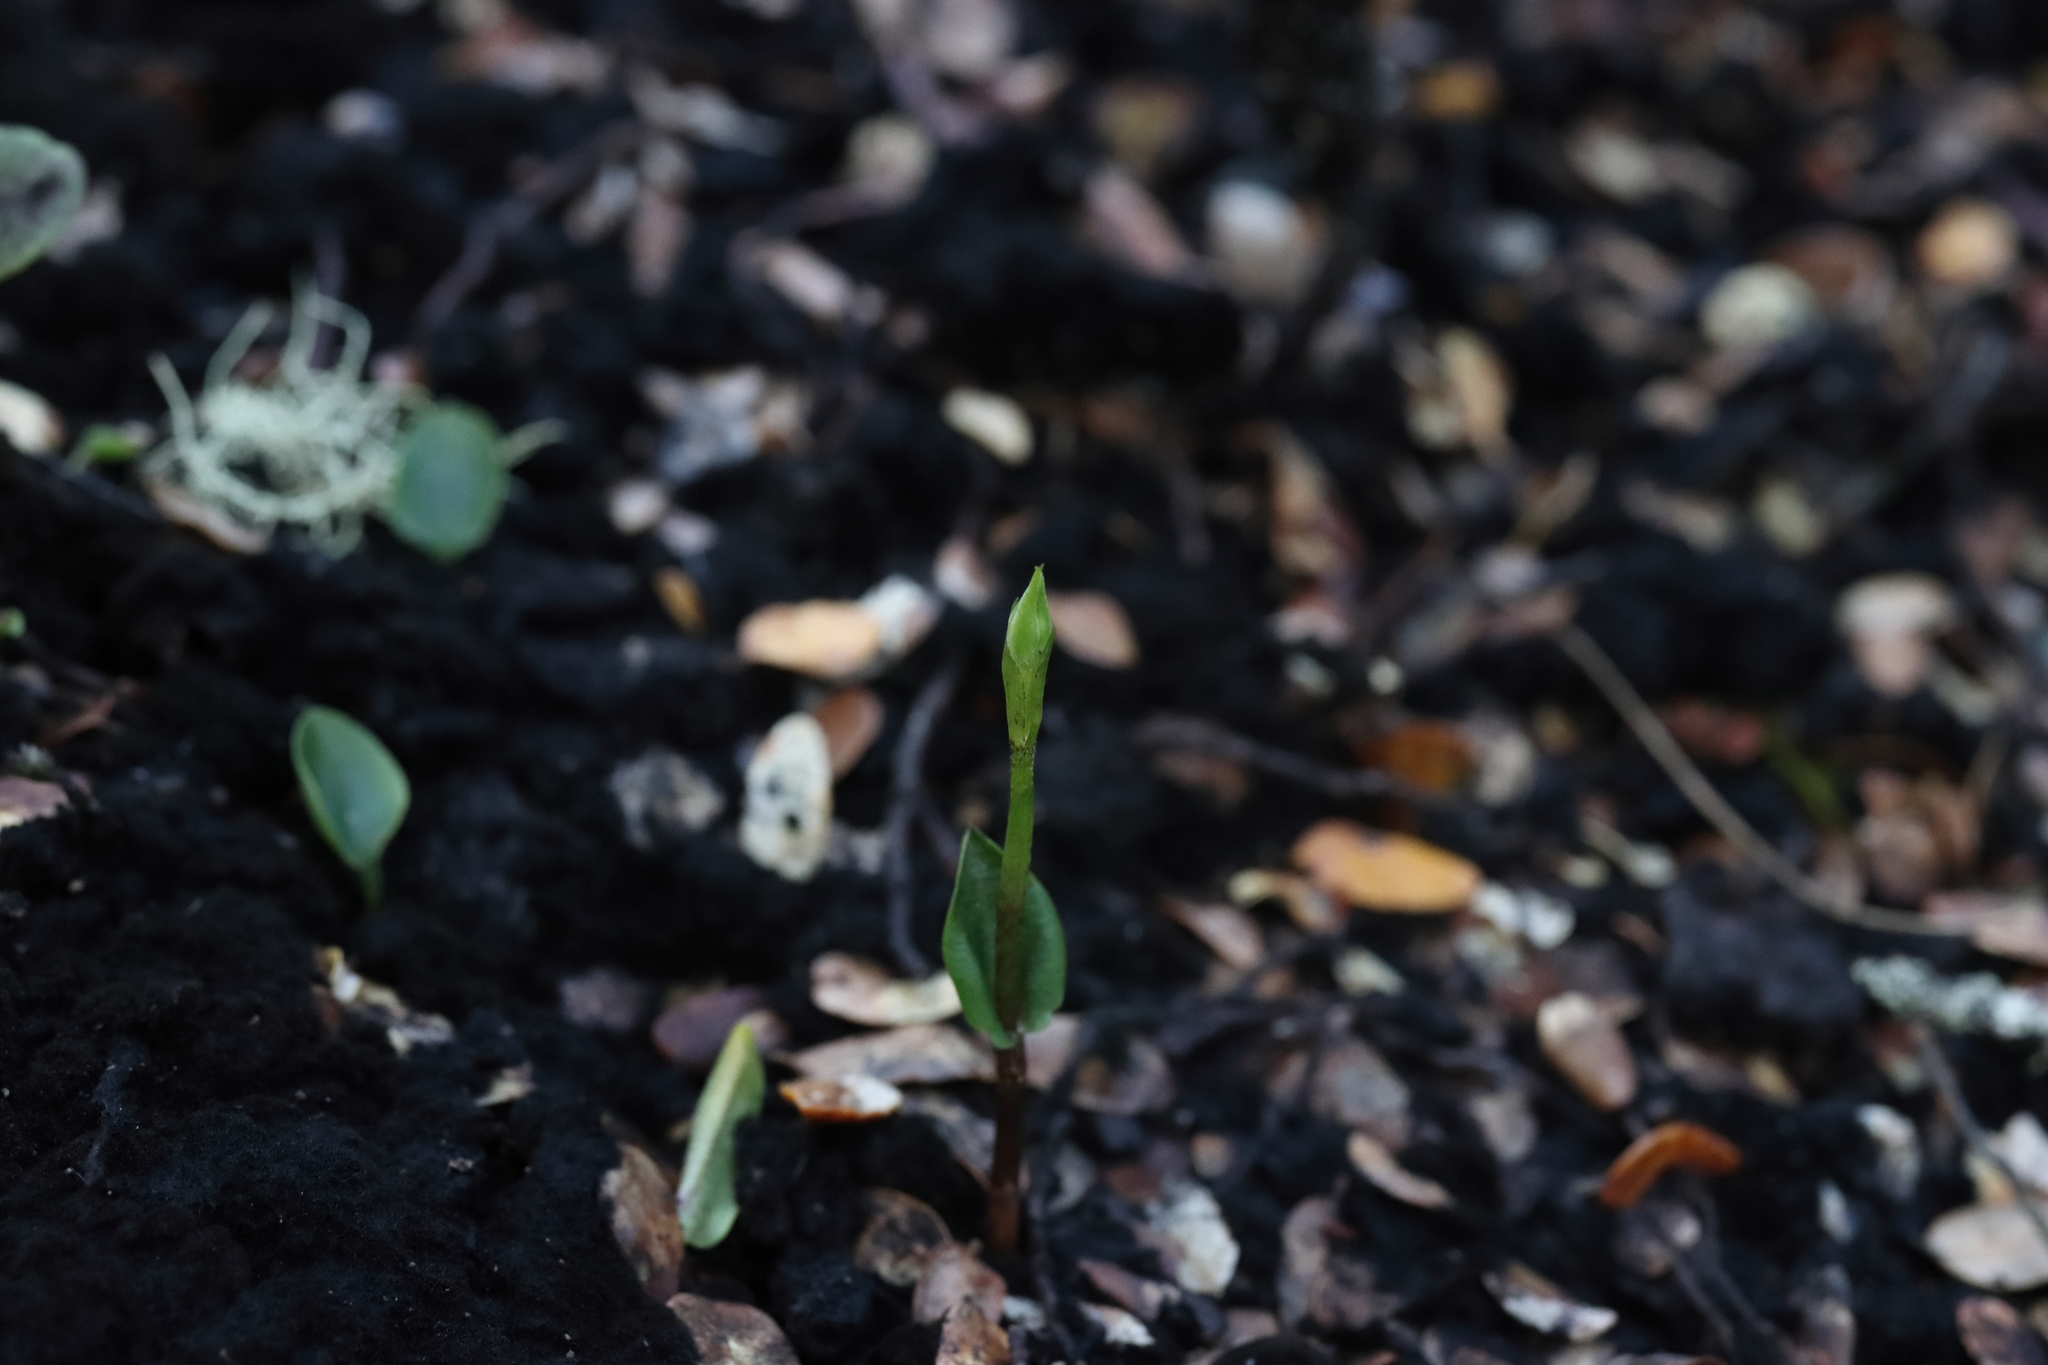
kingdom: Plantae
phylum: Tracheophyta
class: Liliopsida
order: Asparagales
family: Orchidaceae
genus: Adenochilus
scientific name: Adenochilus gracilis
